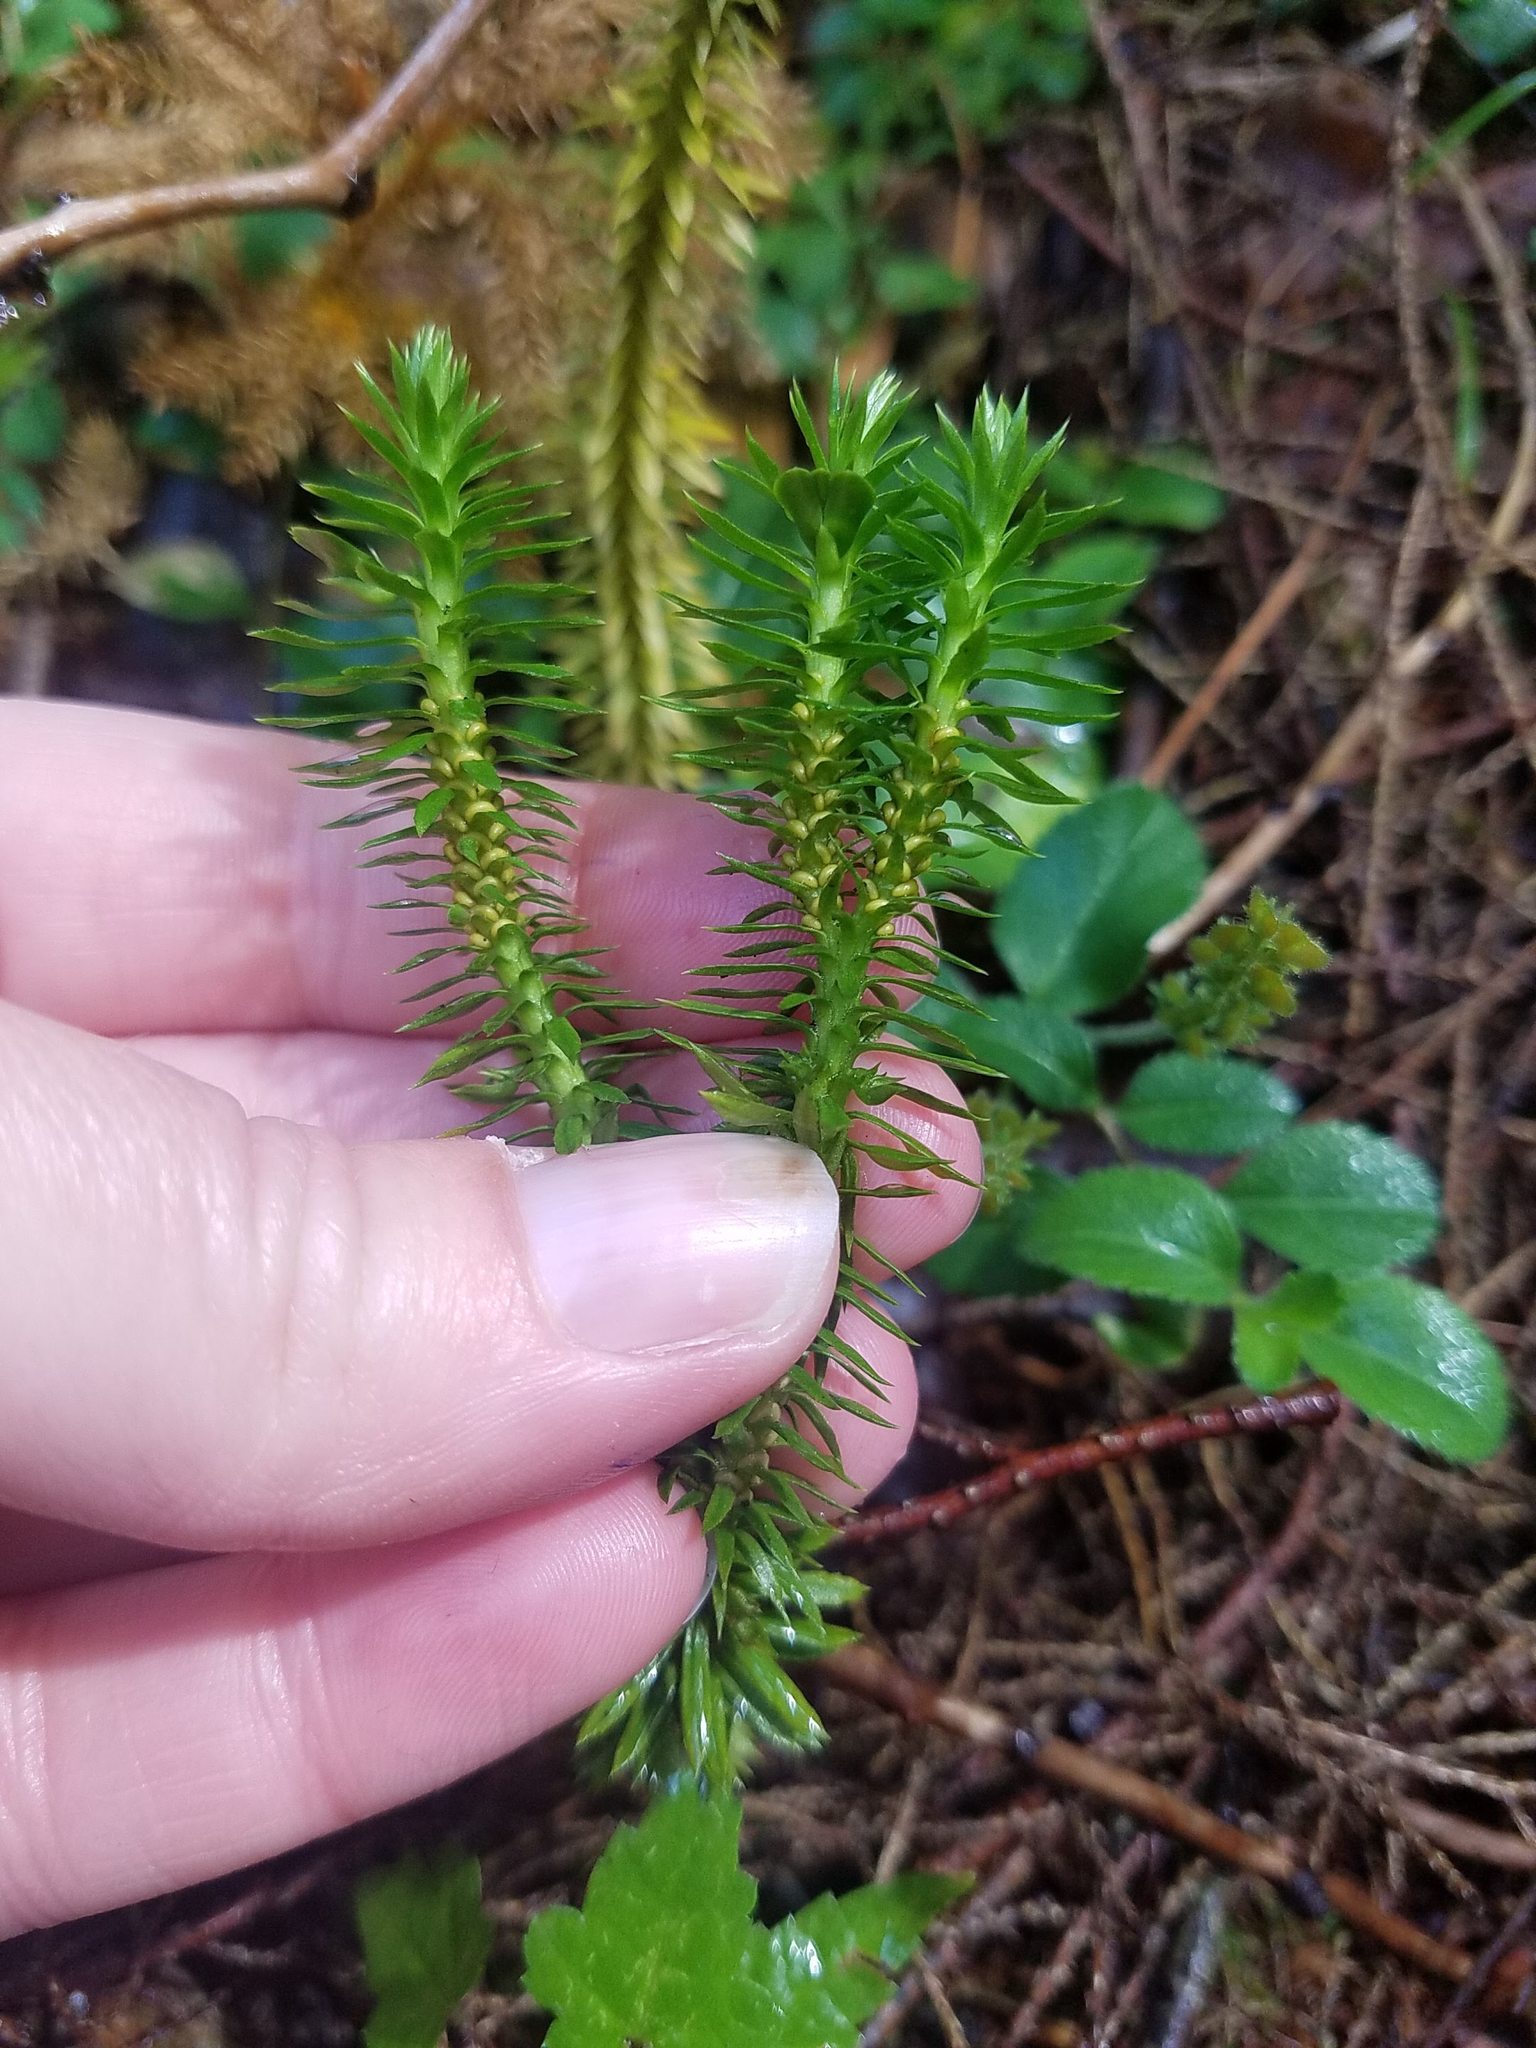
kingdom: Plantae
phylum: Tracheophyta
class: Lycopodiopsida
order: Lycopodiales
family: Lycopodiaceae
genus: Huperzia
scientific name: Huperzia lucidula
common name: Shining clubmoss
